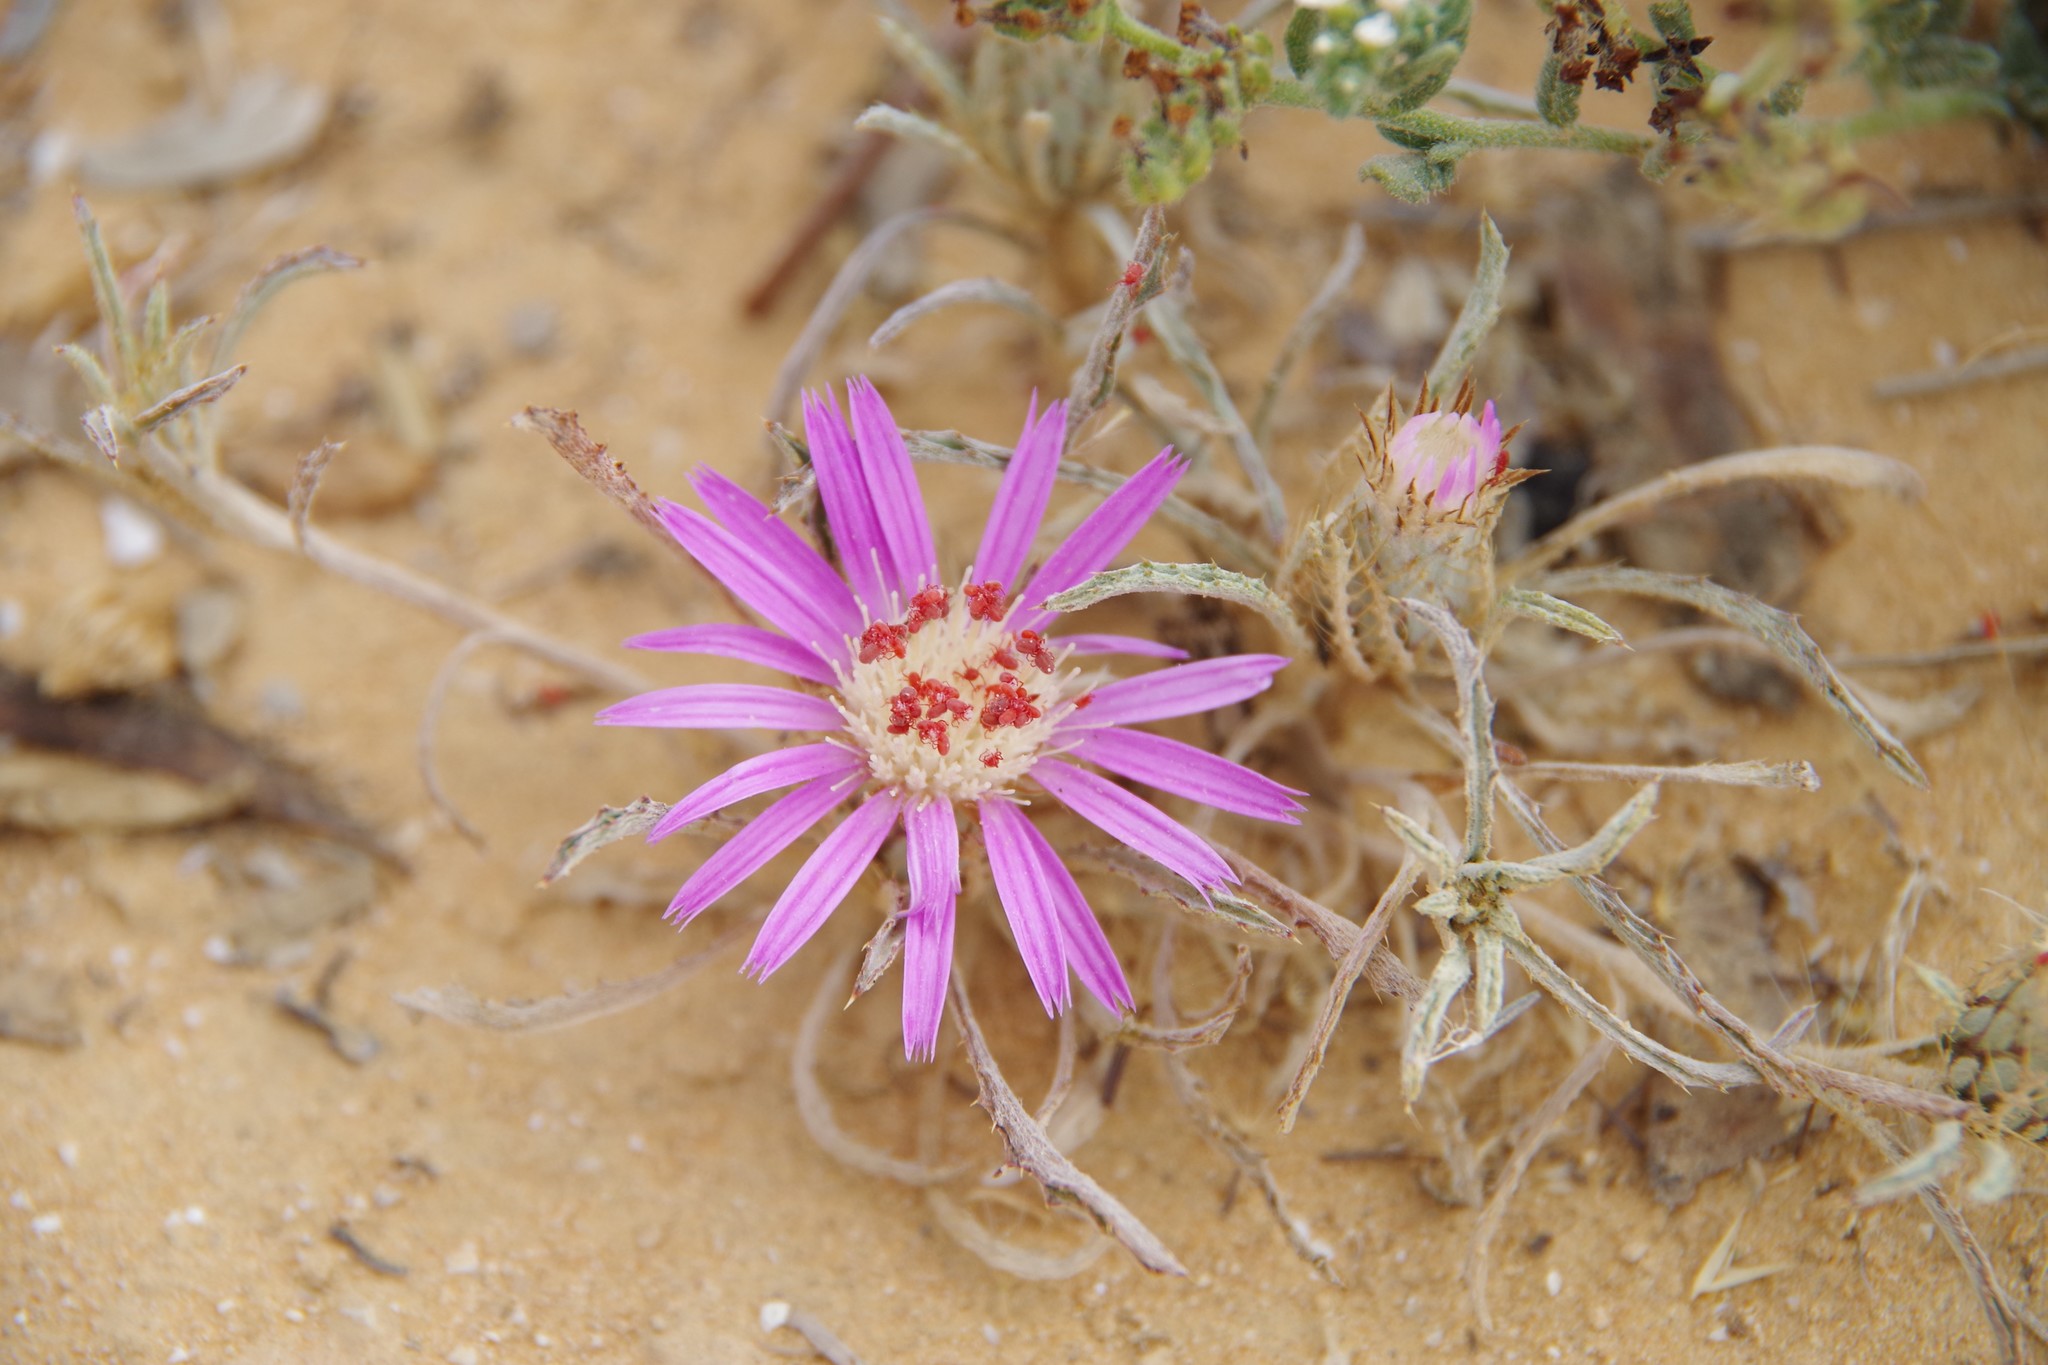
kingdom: Plantae
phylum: Tracheophyta
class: Magnoliopsida
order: Asterales
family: Asteraceae
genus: Atractylis
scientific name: Atractylis prolifera
